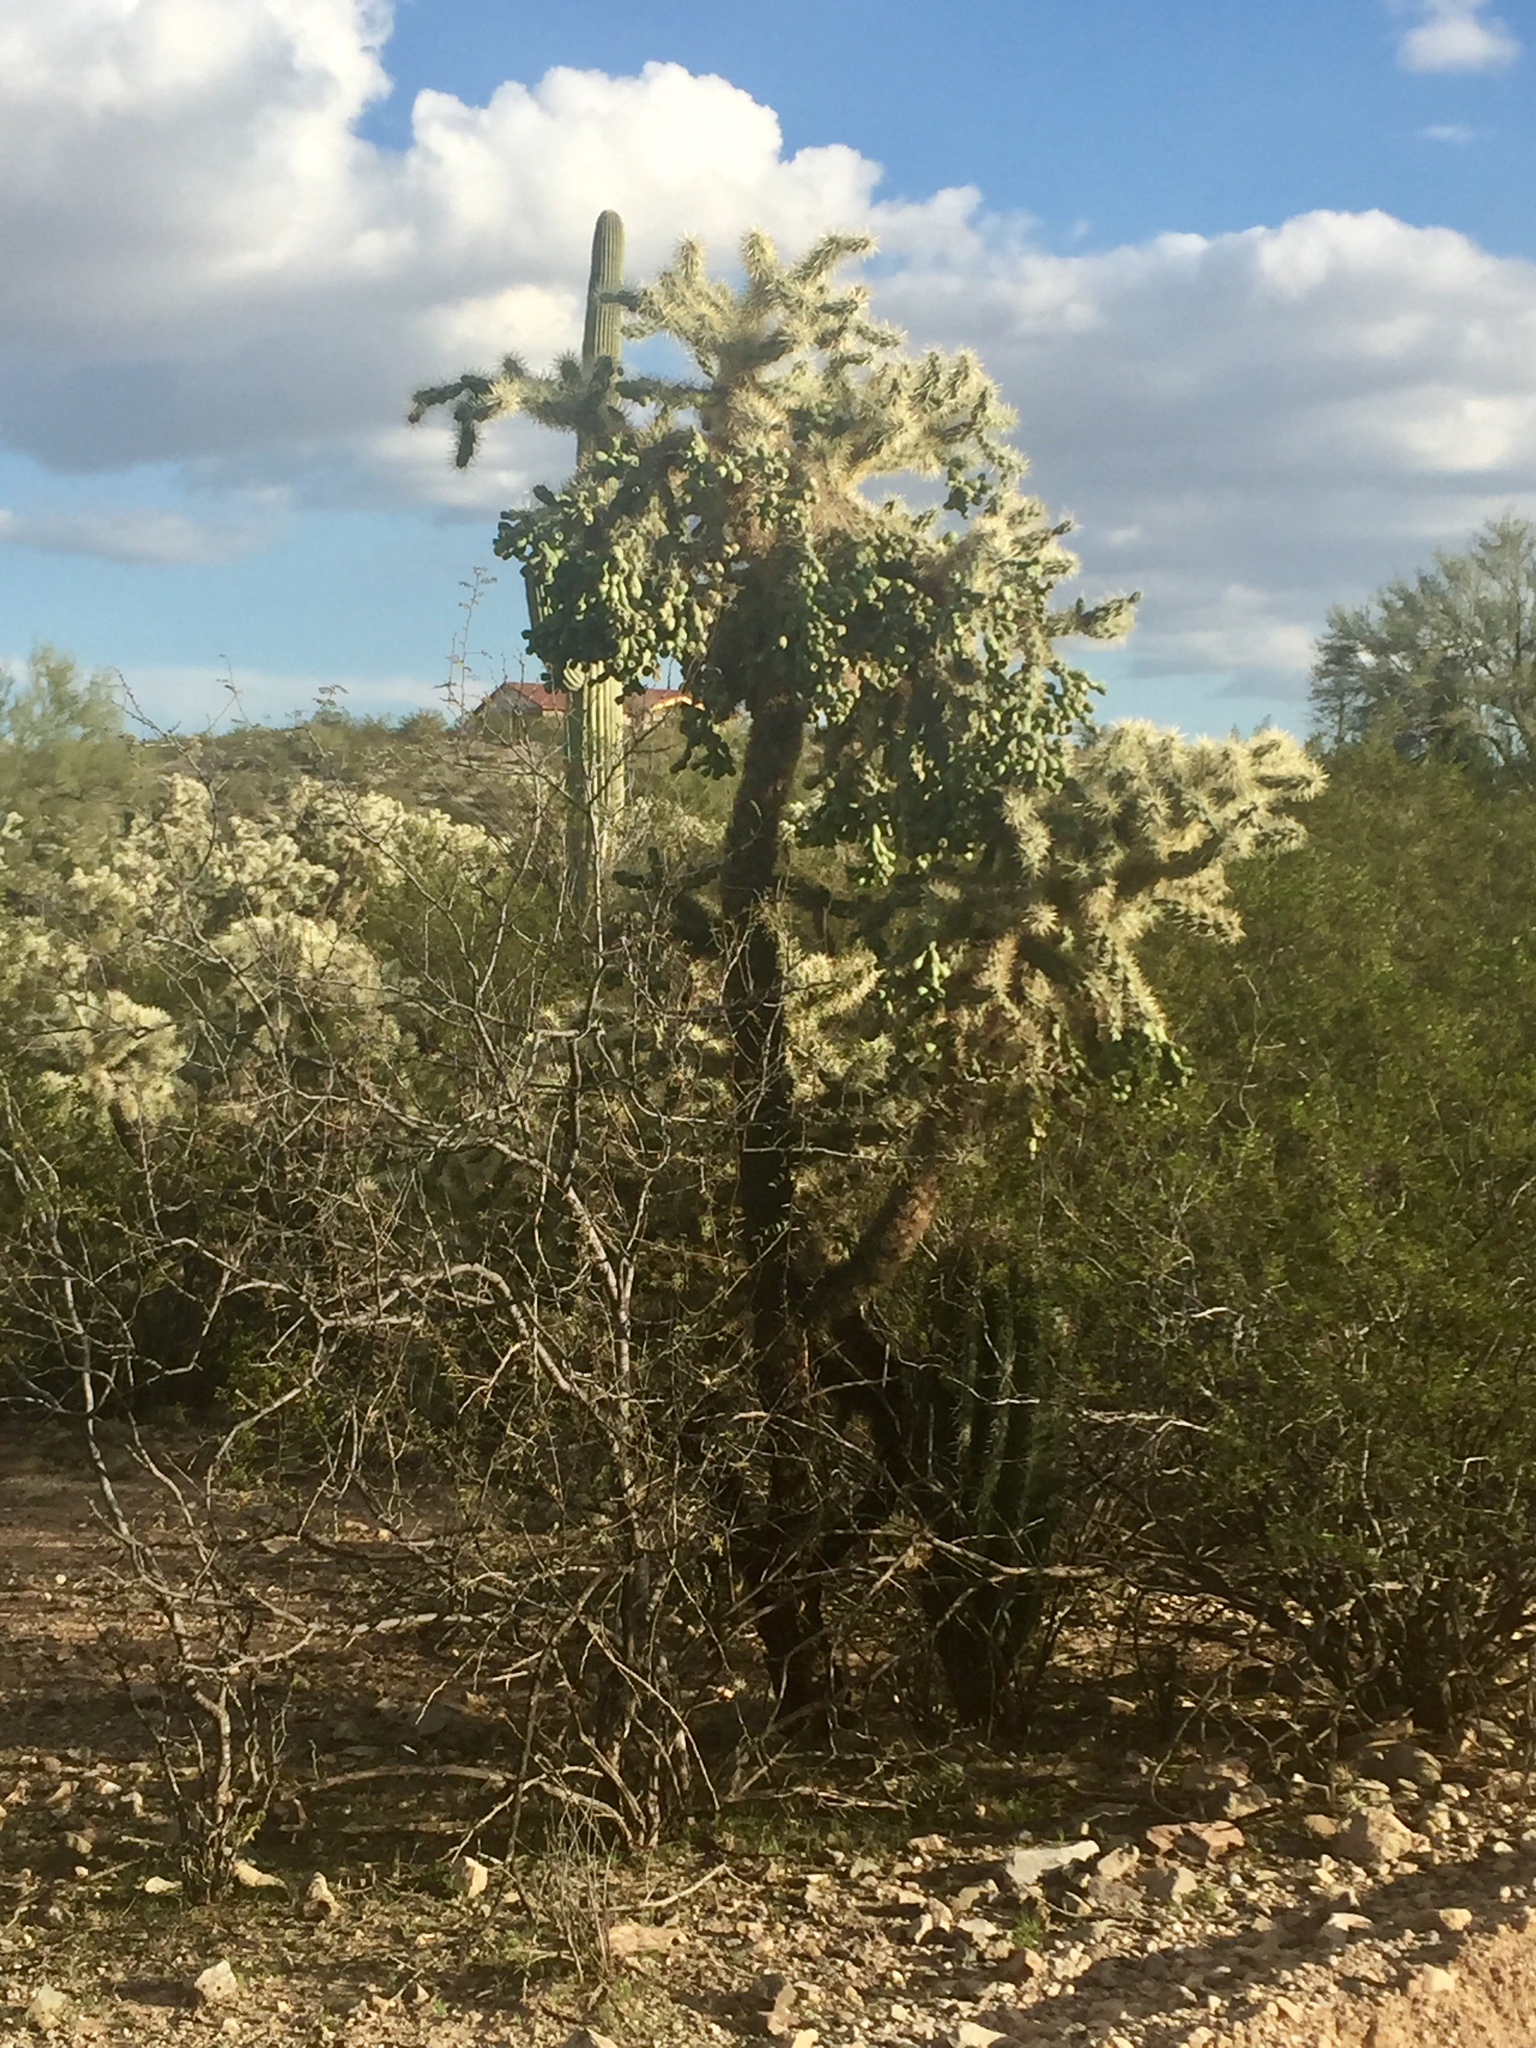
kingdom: Plantae
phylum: Tracheophyta
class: Magnoliopsida
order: Caryophyllales
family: Cactaceae
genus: Cylindropuntia
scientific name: Cylindropuntia fulgida
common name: Jumping cholla
